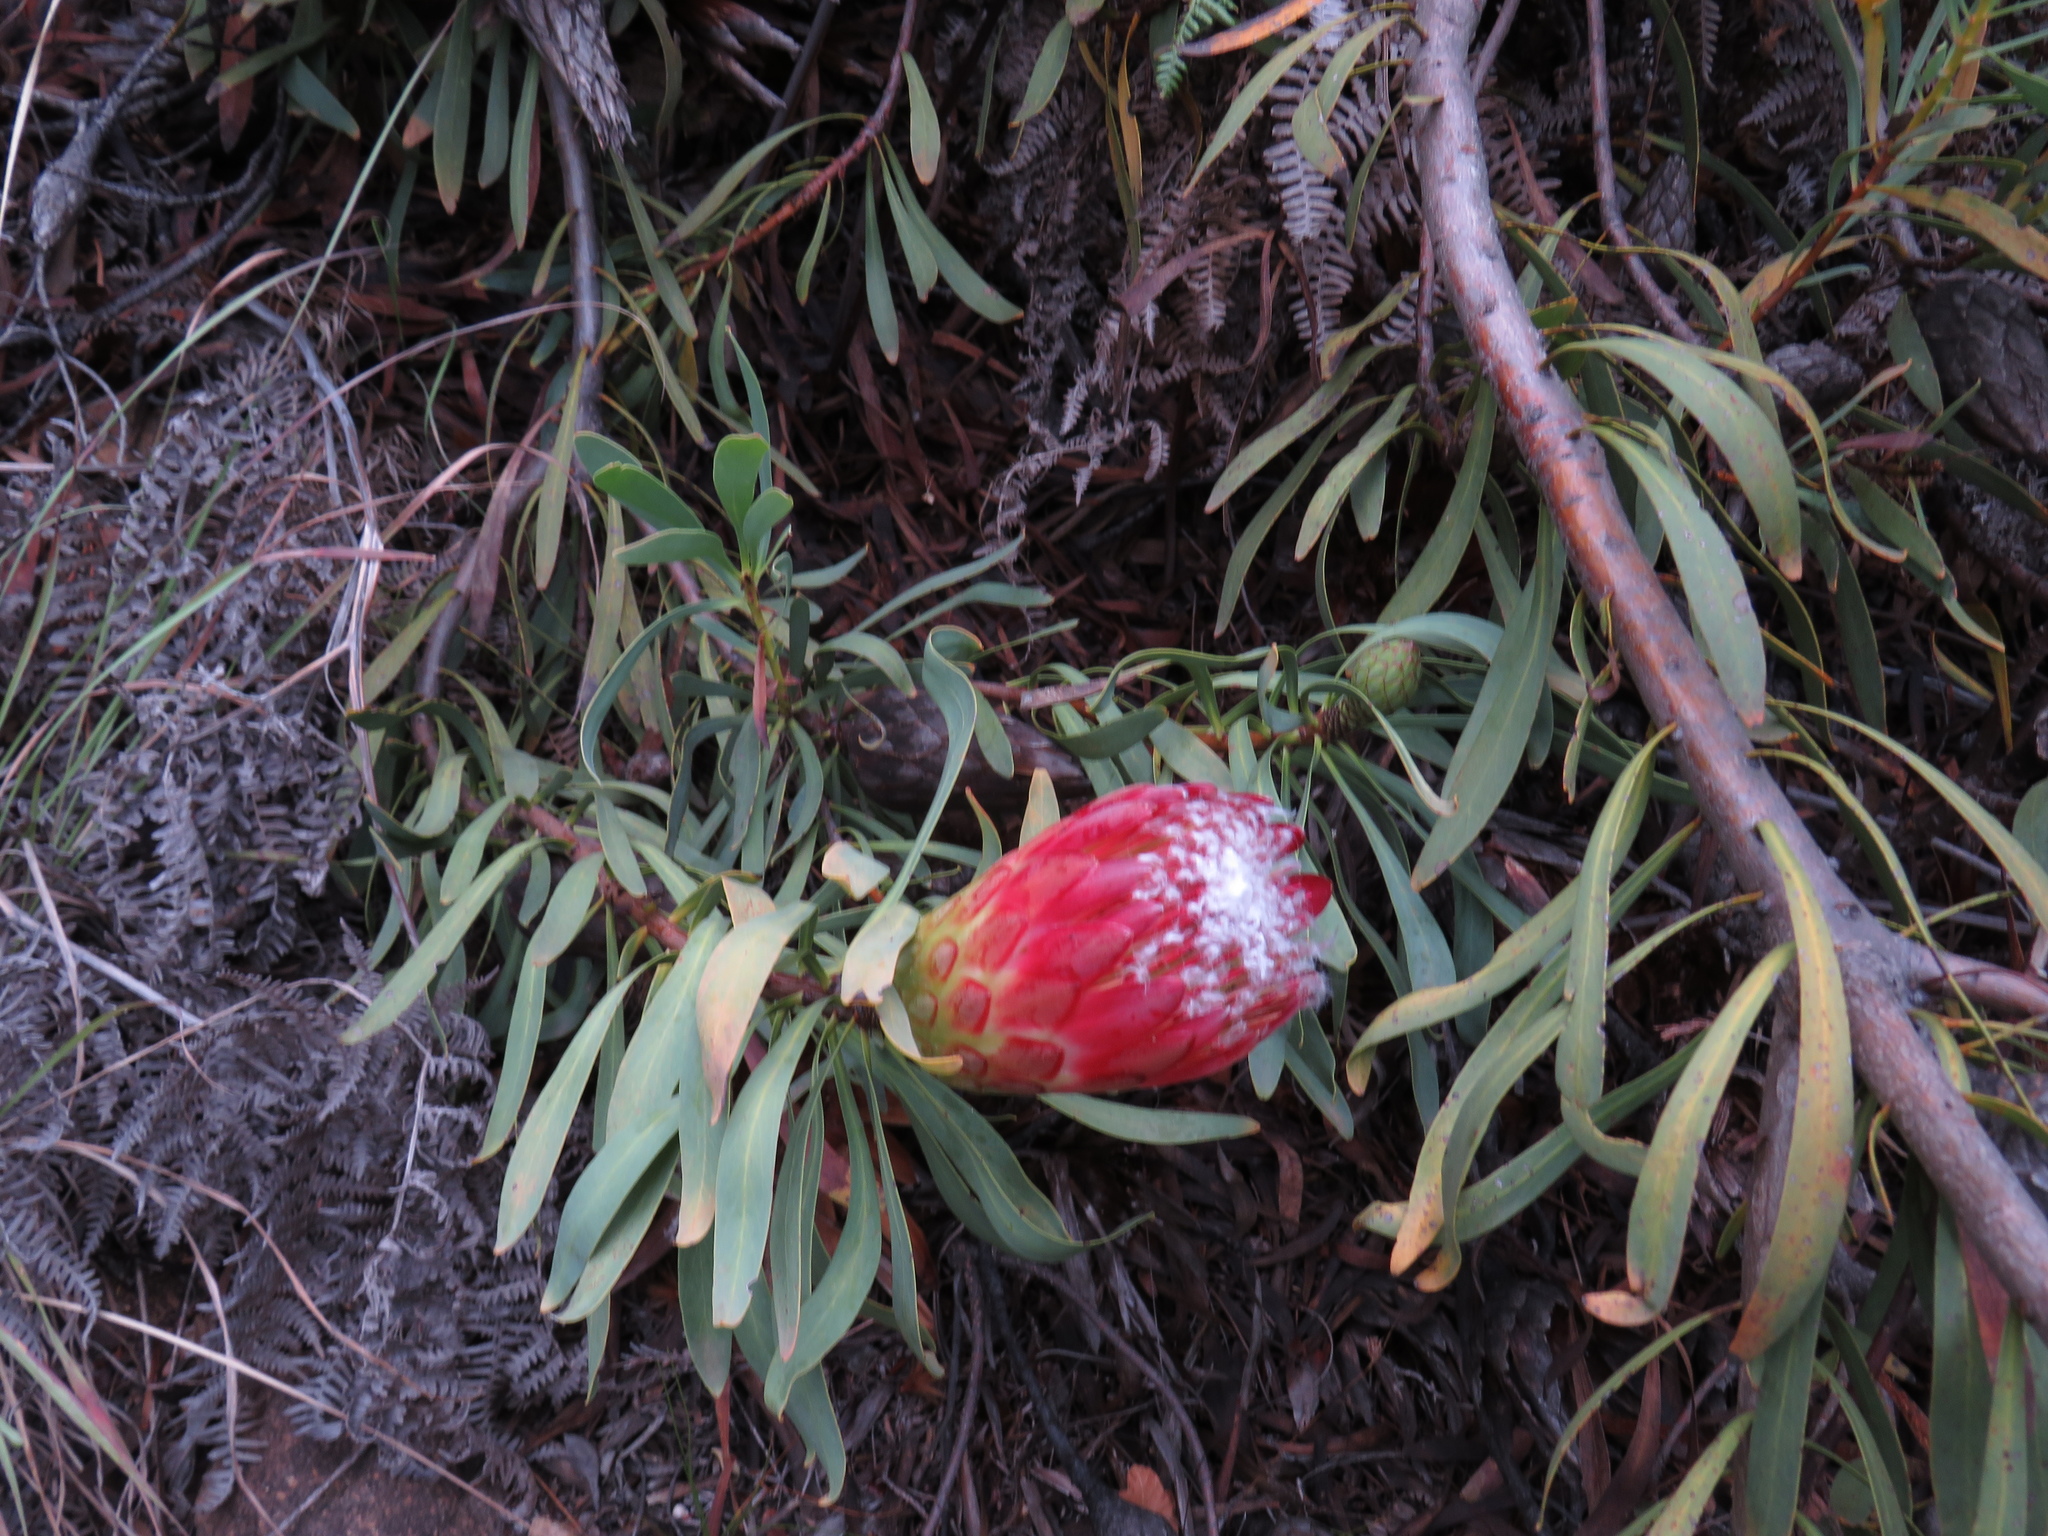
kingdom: Plantae
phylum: Tracheophyta
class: Magnoliopsida
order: Proteales
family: Proteaceae
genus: Protea
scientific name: Protea repens
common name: Sugarbush
